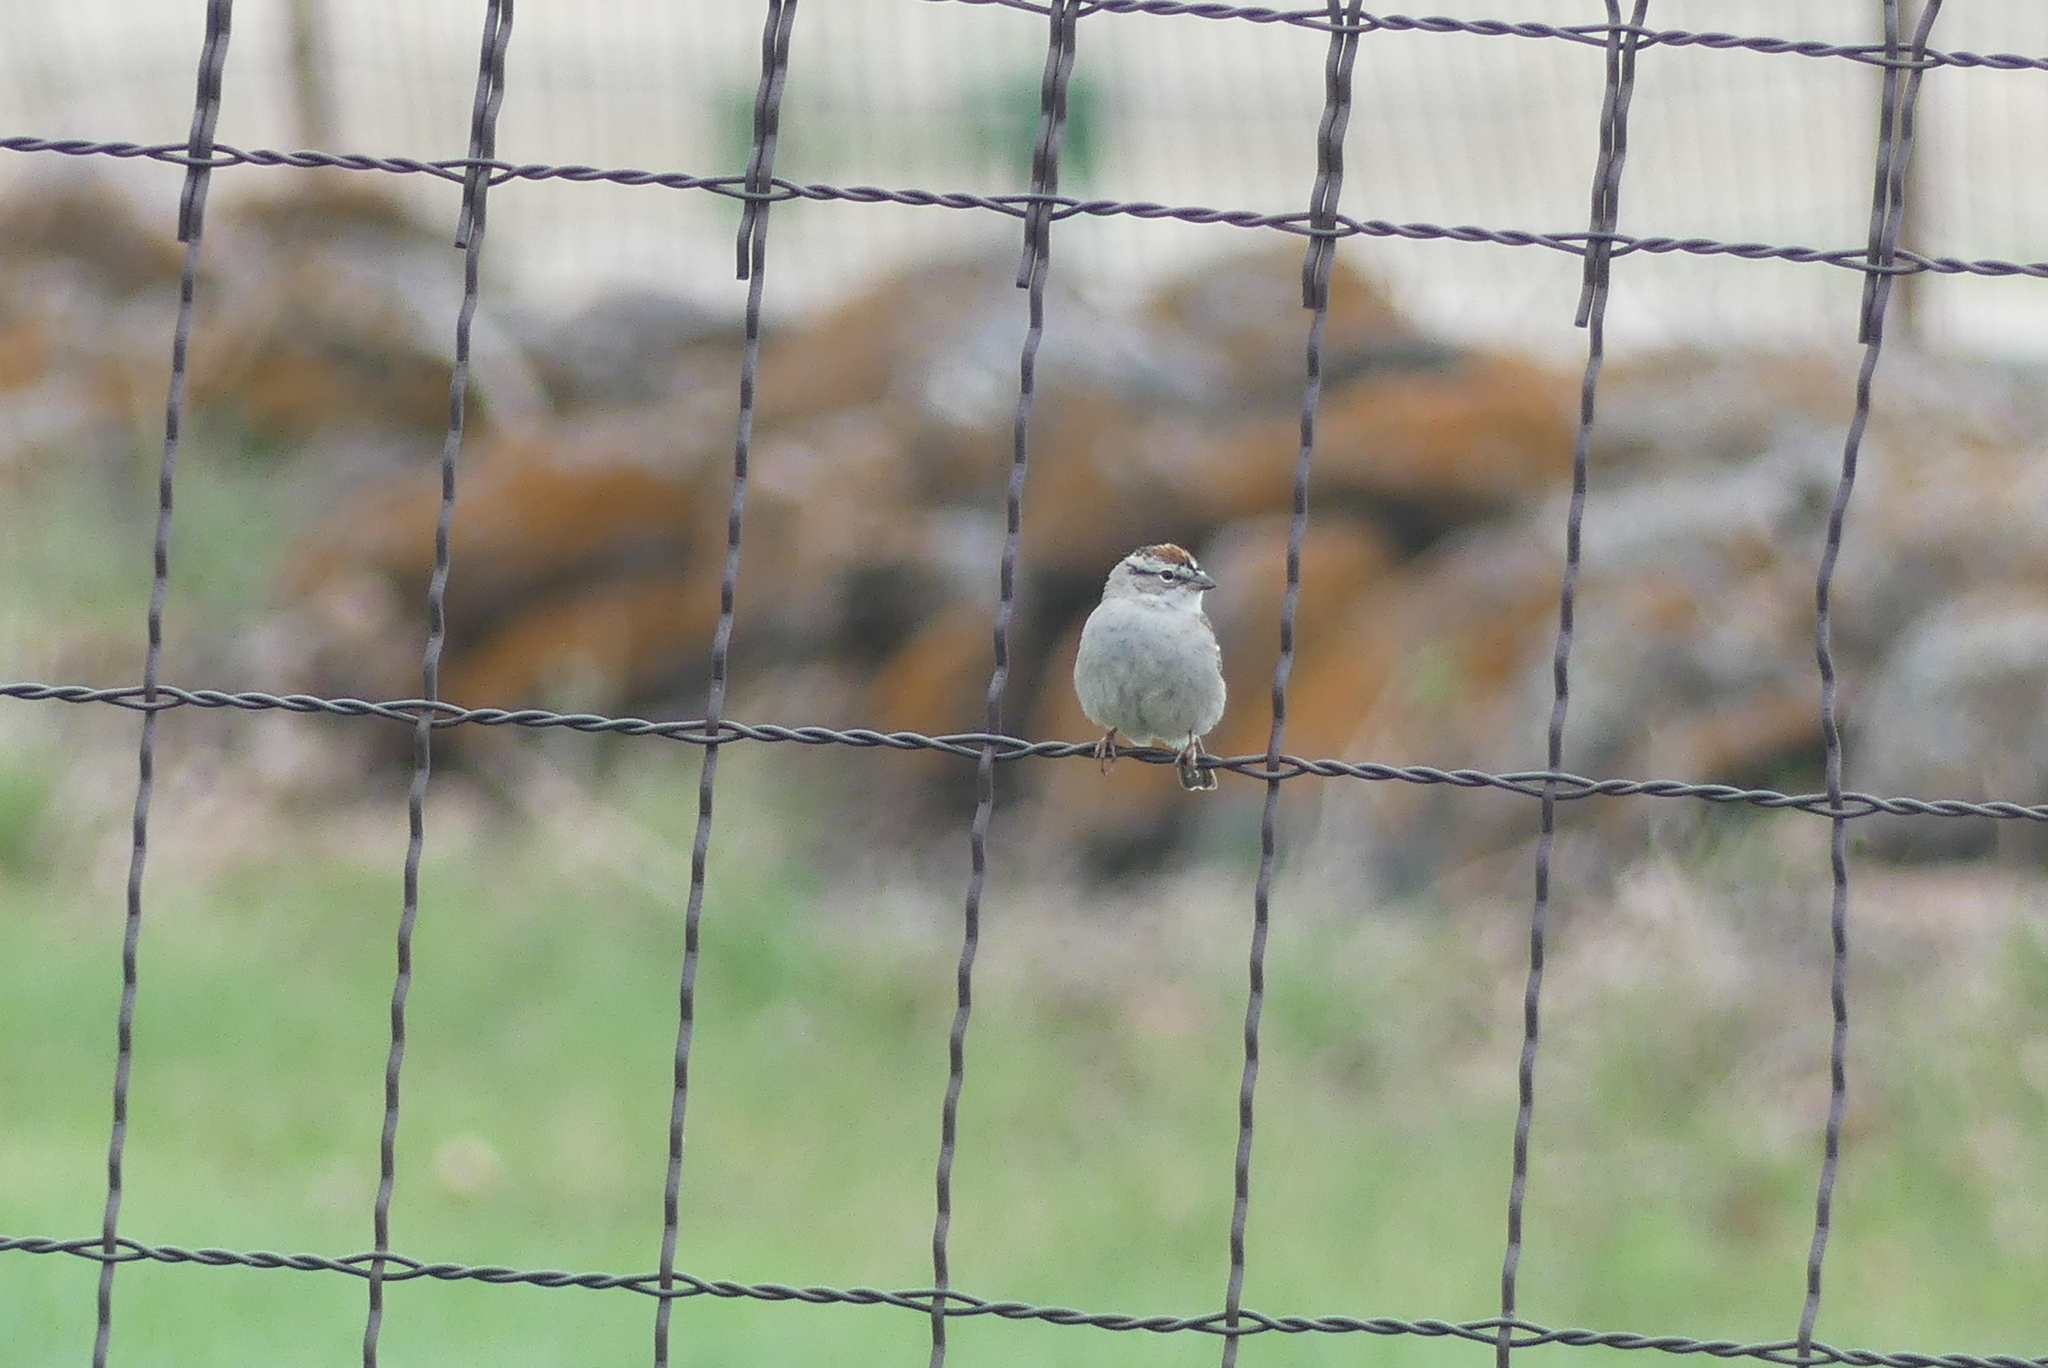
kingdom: Animalia
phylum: Chordata
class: Aves
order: Passeriformes
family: Passerellidae
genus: Spizella
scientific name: Spizella passerina
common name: Chipping sparrow
